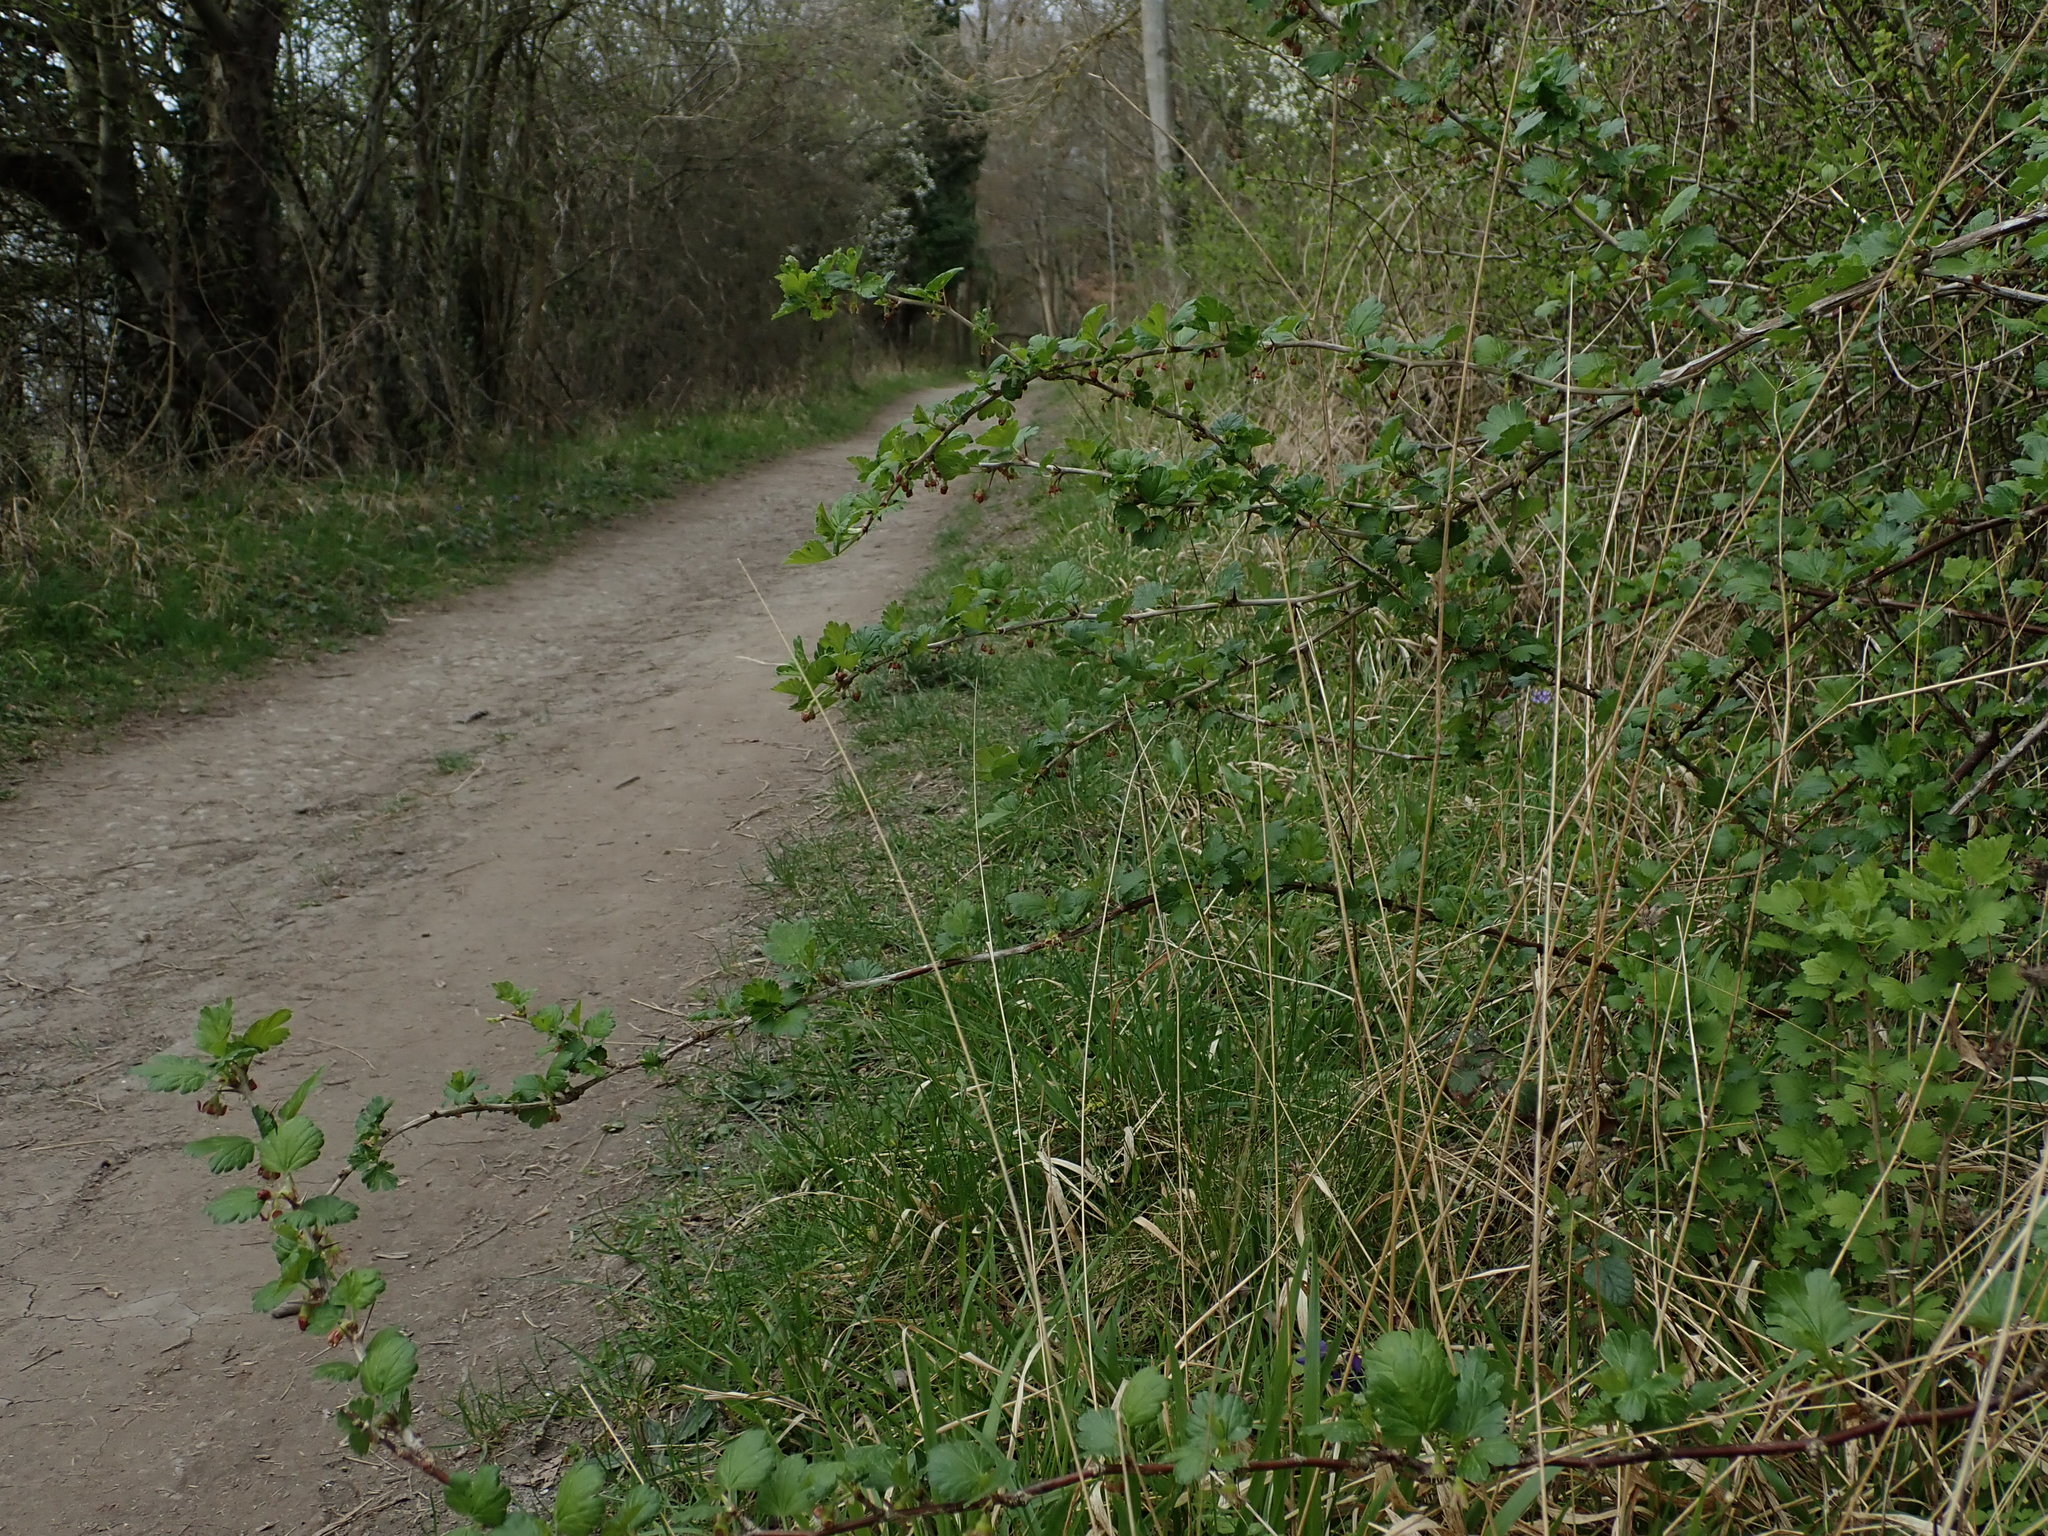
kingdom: Plantae
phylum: Tracheophyta
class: Magnoliopsida
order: Saxifragales
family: Grossulariaceae
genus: Ribes
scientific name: Ribes uva-crispa
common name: Gooseberry
